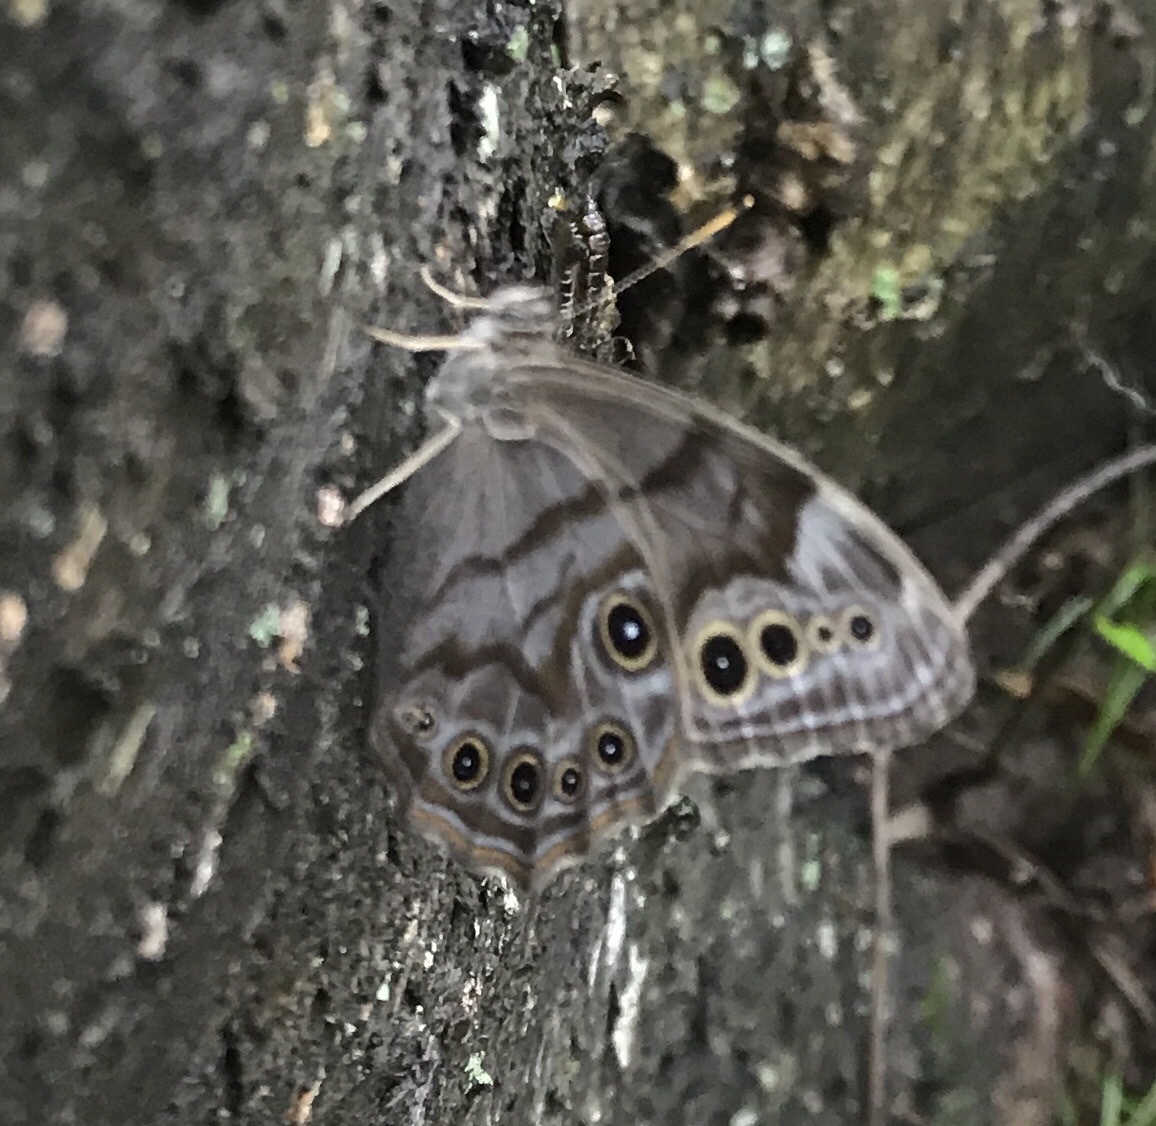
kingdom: Animalia
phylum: Arthropoda
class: Insecta
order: Lepidoptera
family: Nymphalidae
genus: Lethe
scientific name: Lethe anthedon
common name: Northern pearly-eye
